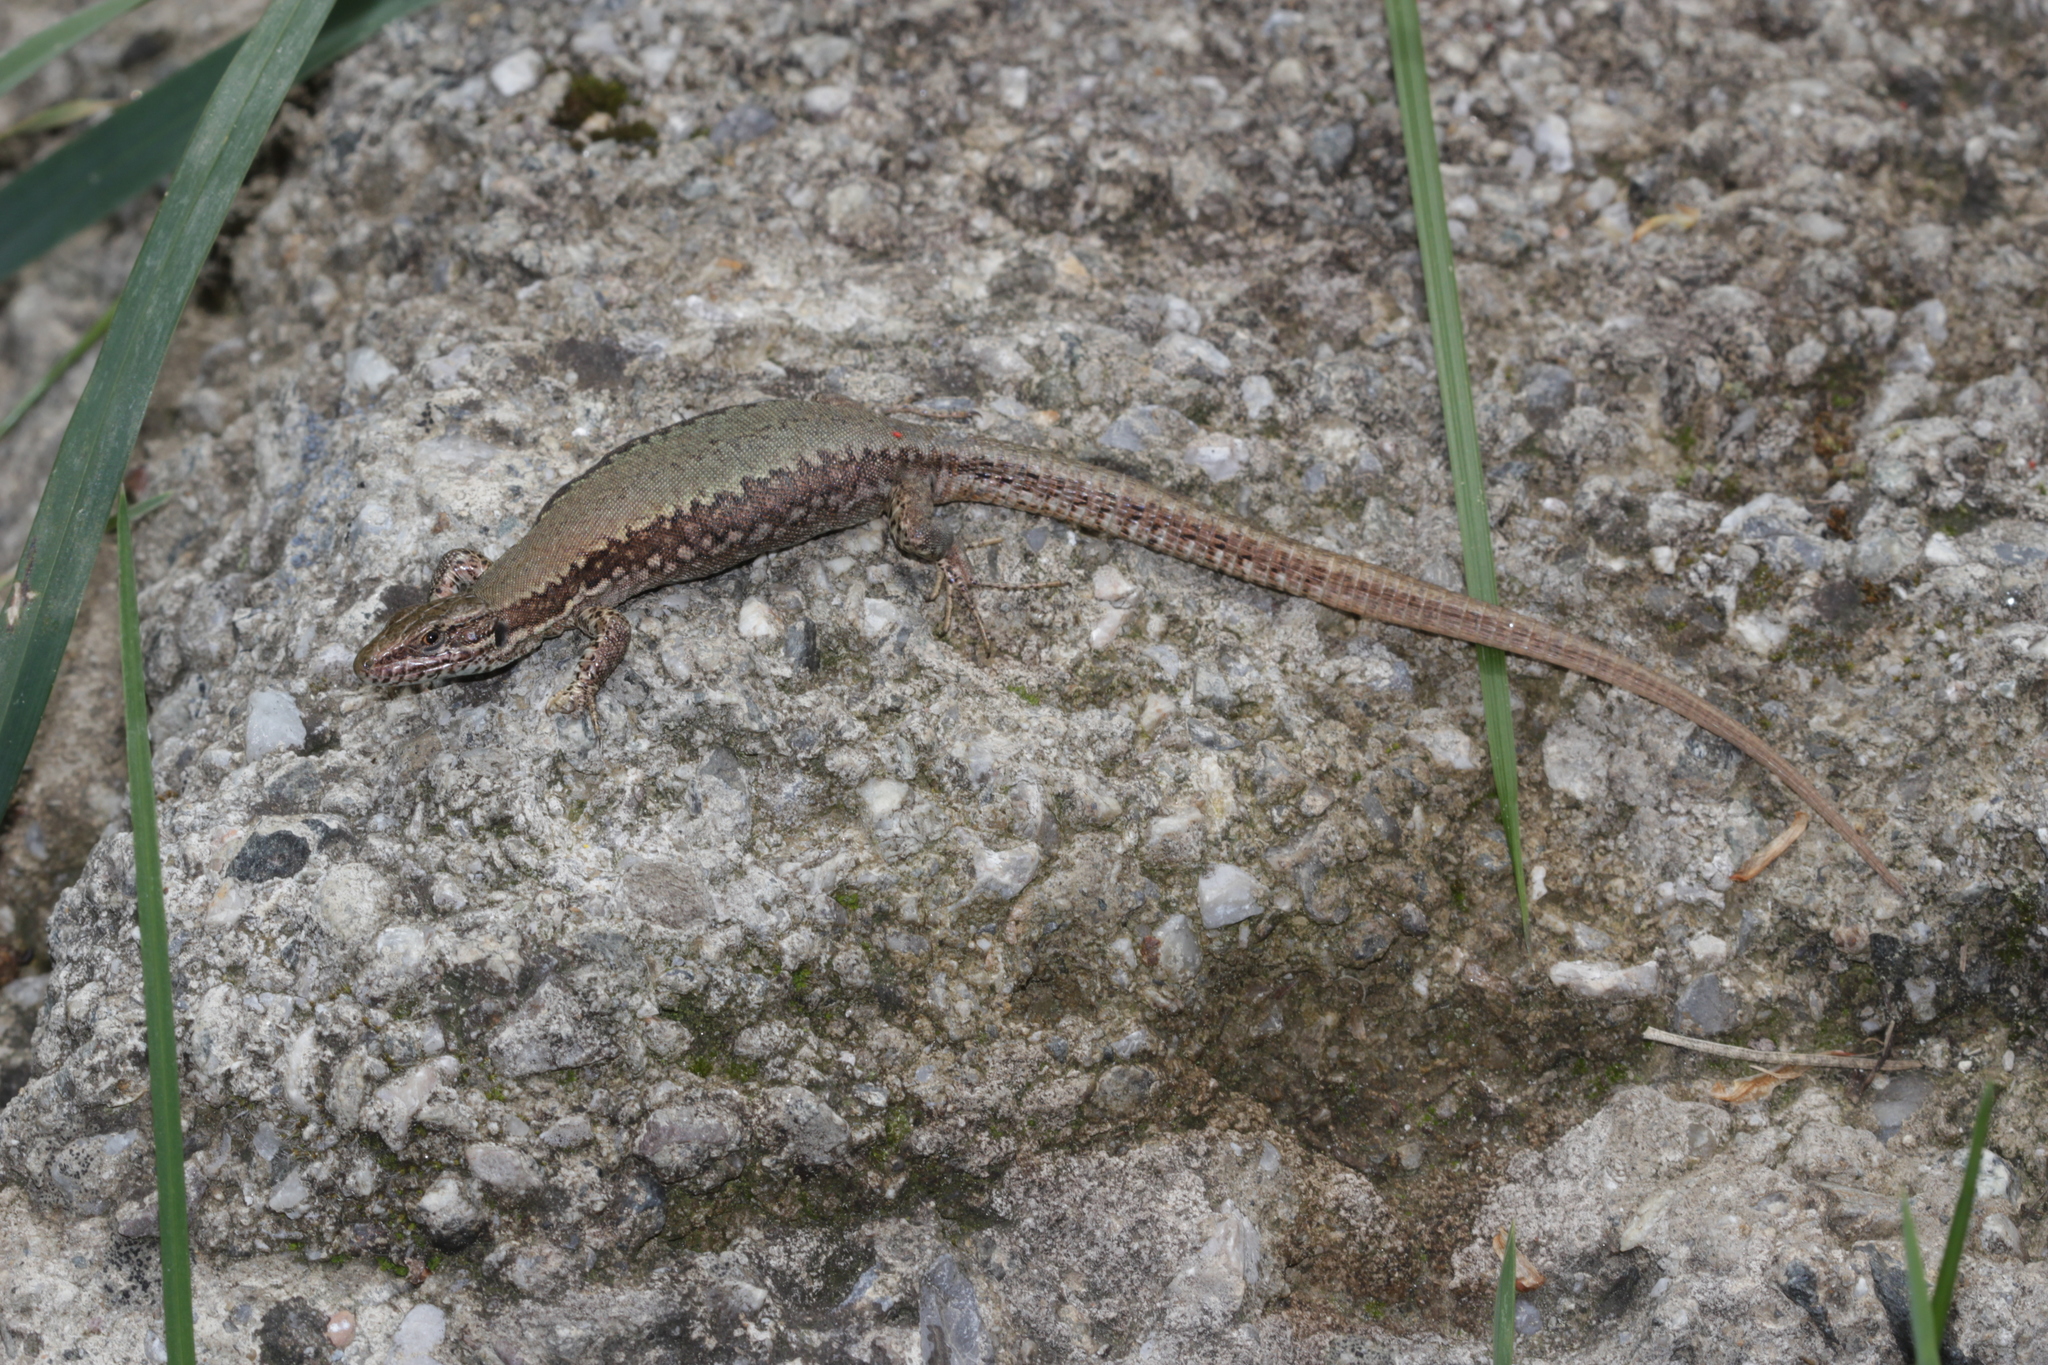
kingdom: Animalia
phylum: Chordata
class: Squamata
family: Lacertidae
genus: Podarcis
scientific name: Podarcis muralis
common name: Common wall lizard
